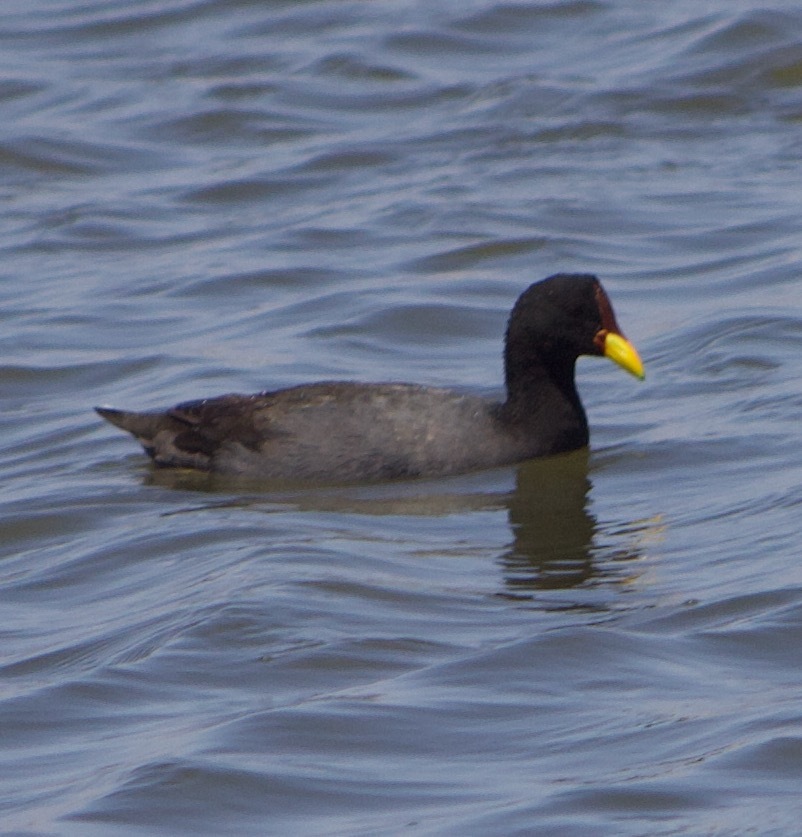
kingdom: Animalia
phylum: Chordata
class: Aves
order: Gruiformes
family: Rallidae
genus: Fulica
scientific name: Fulica rufifrons
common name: Red-fronted coot
